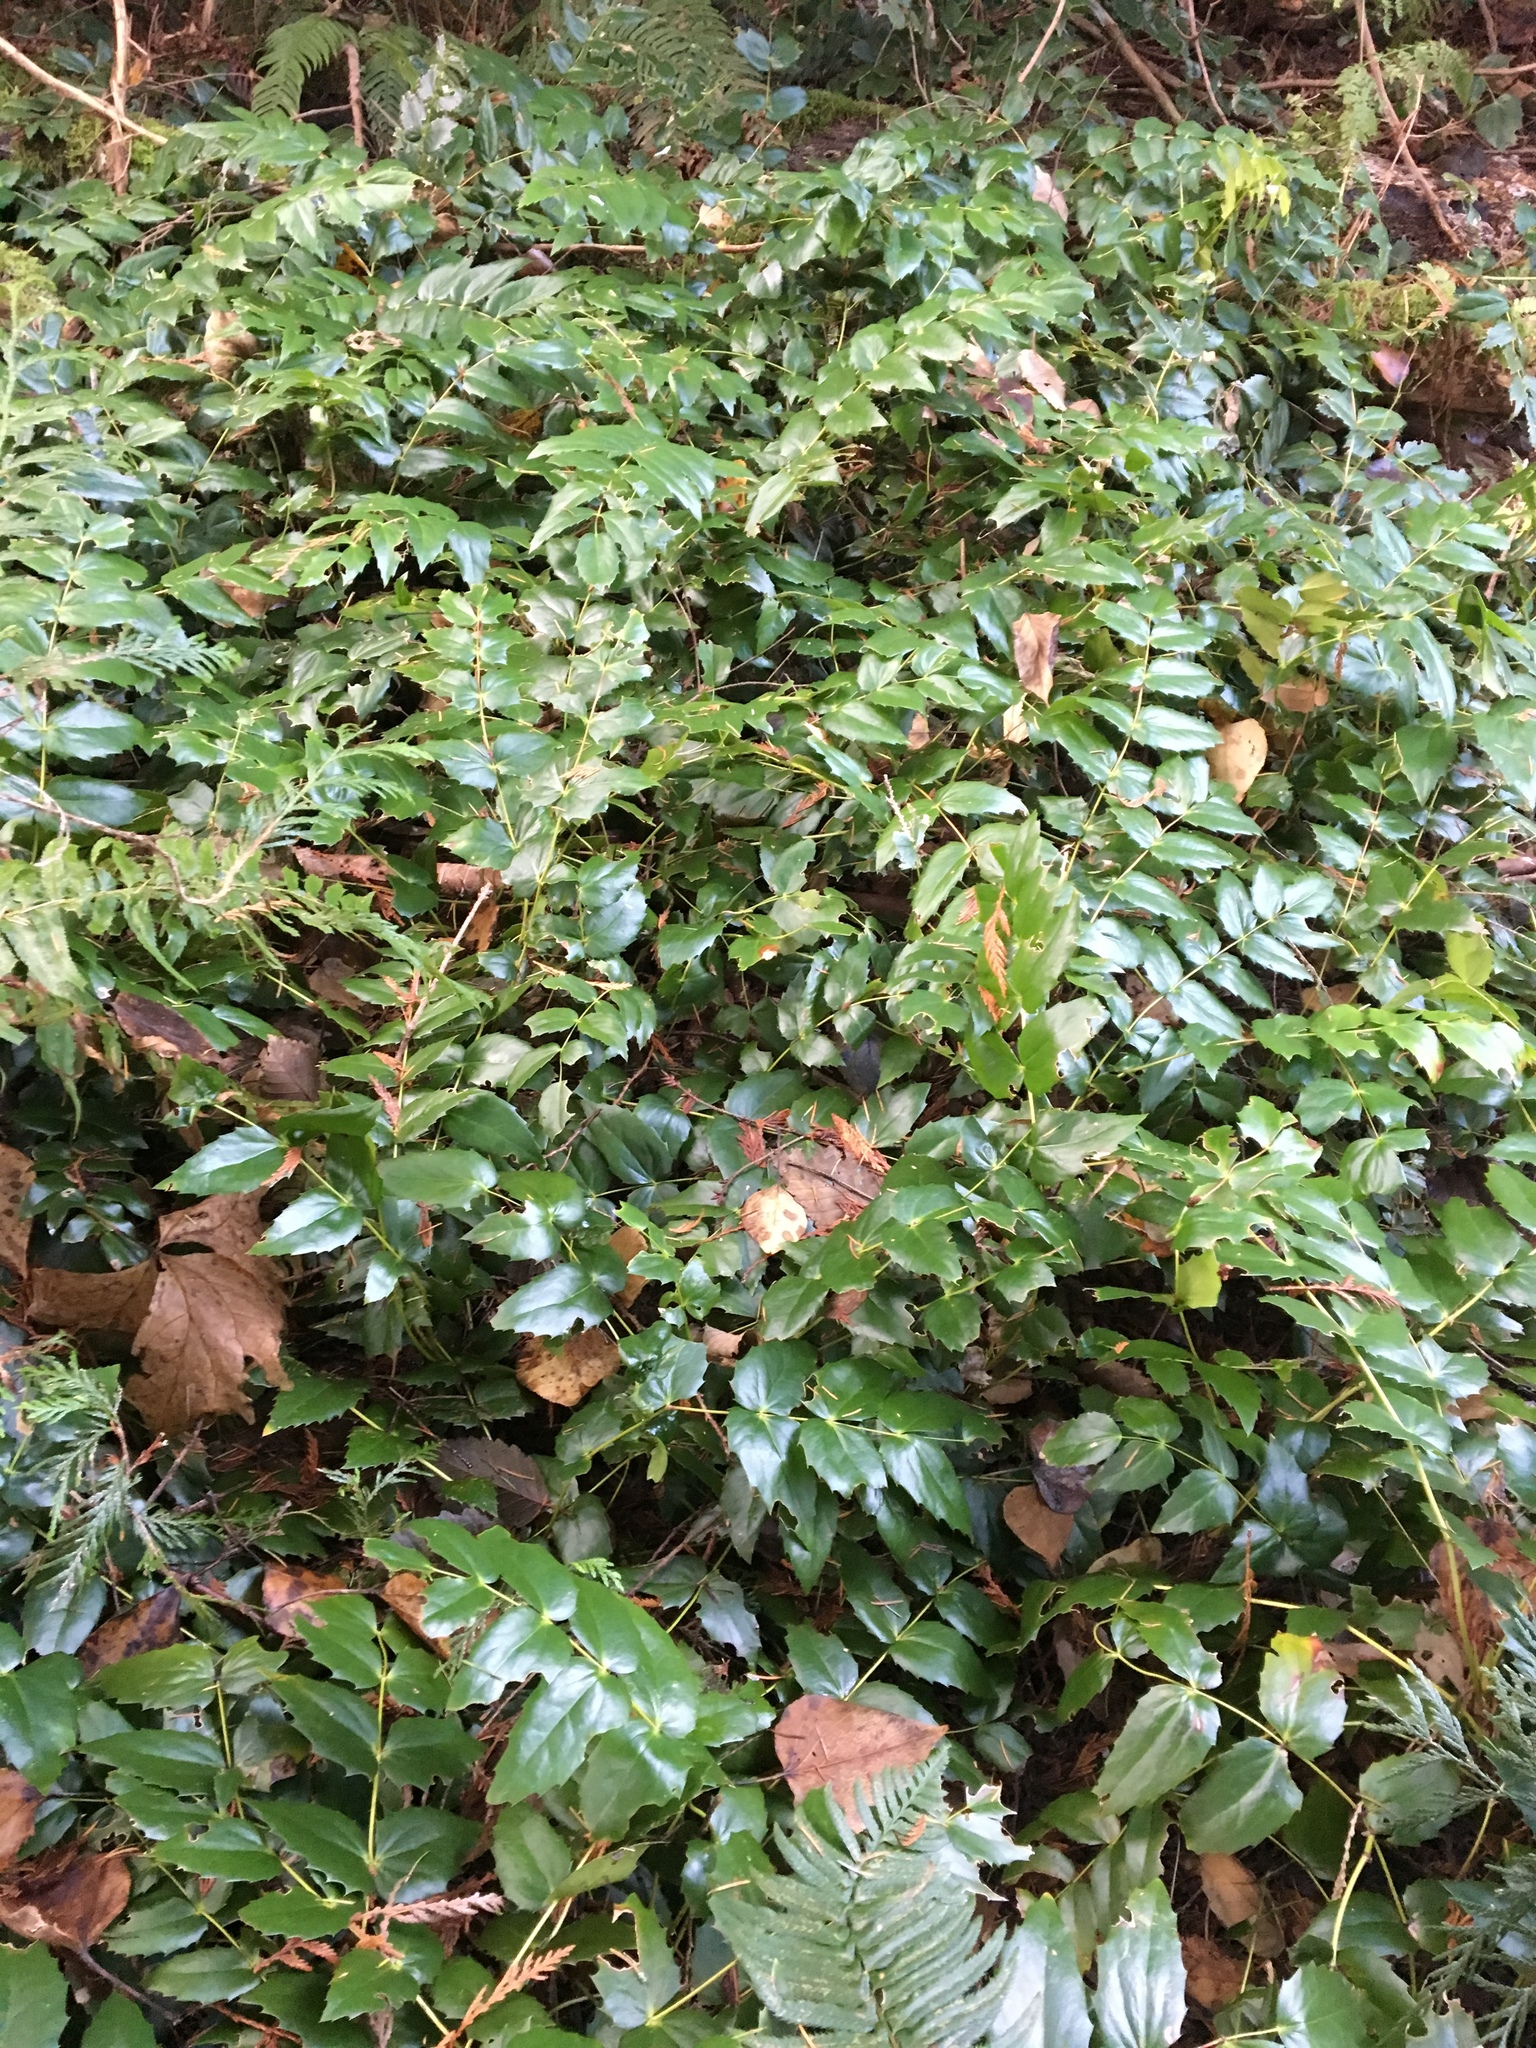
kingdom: Plantae
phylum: Tracheophyta
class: Magnoliopsida
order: Ranunculales
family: Berberidaceae
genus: Mahonia
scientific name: Mahonia nervosa
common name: Cascade oregon-grape
